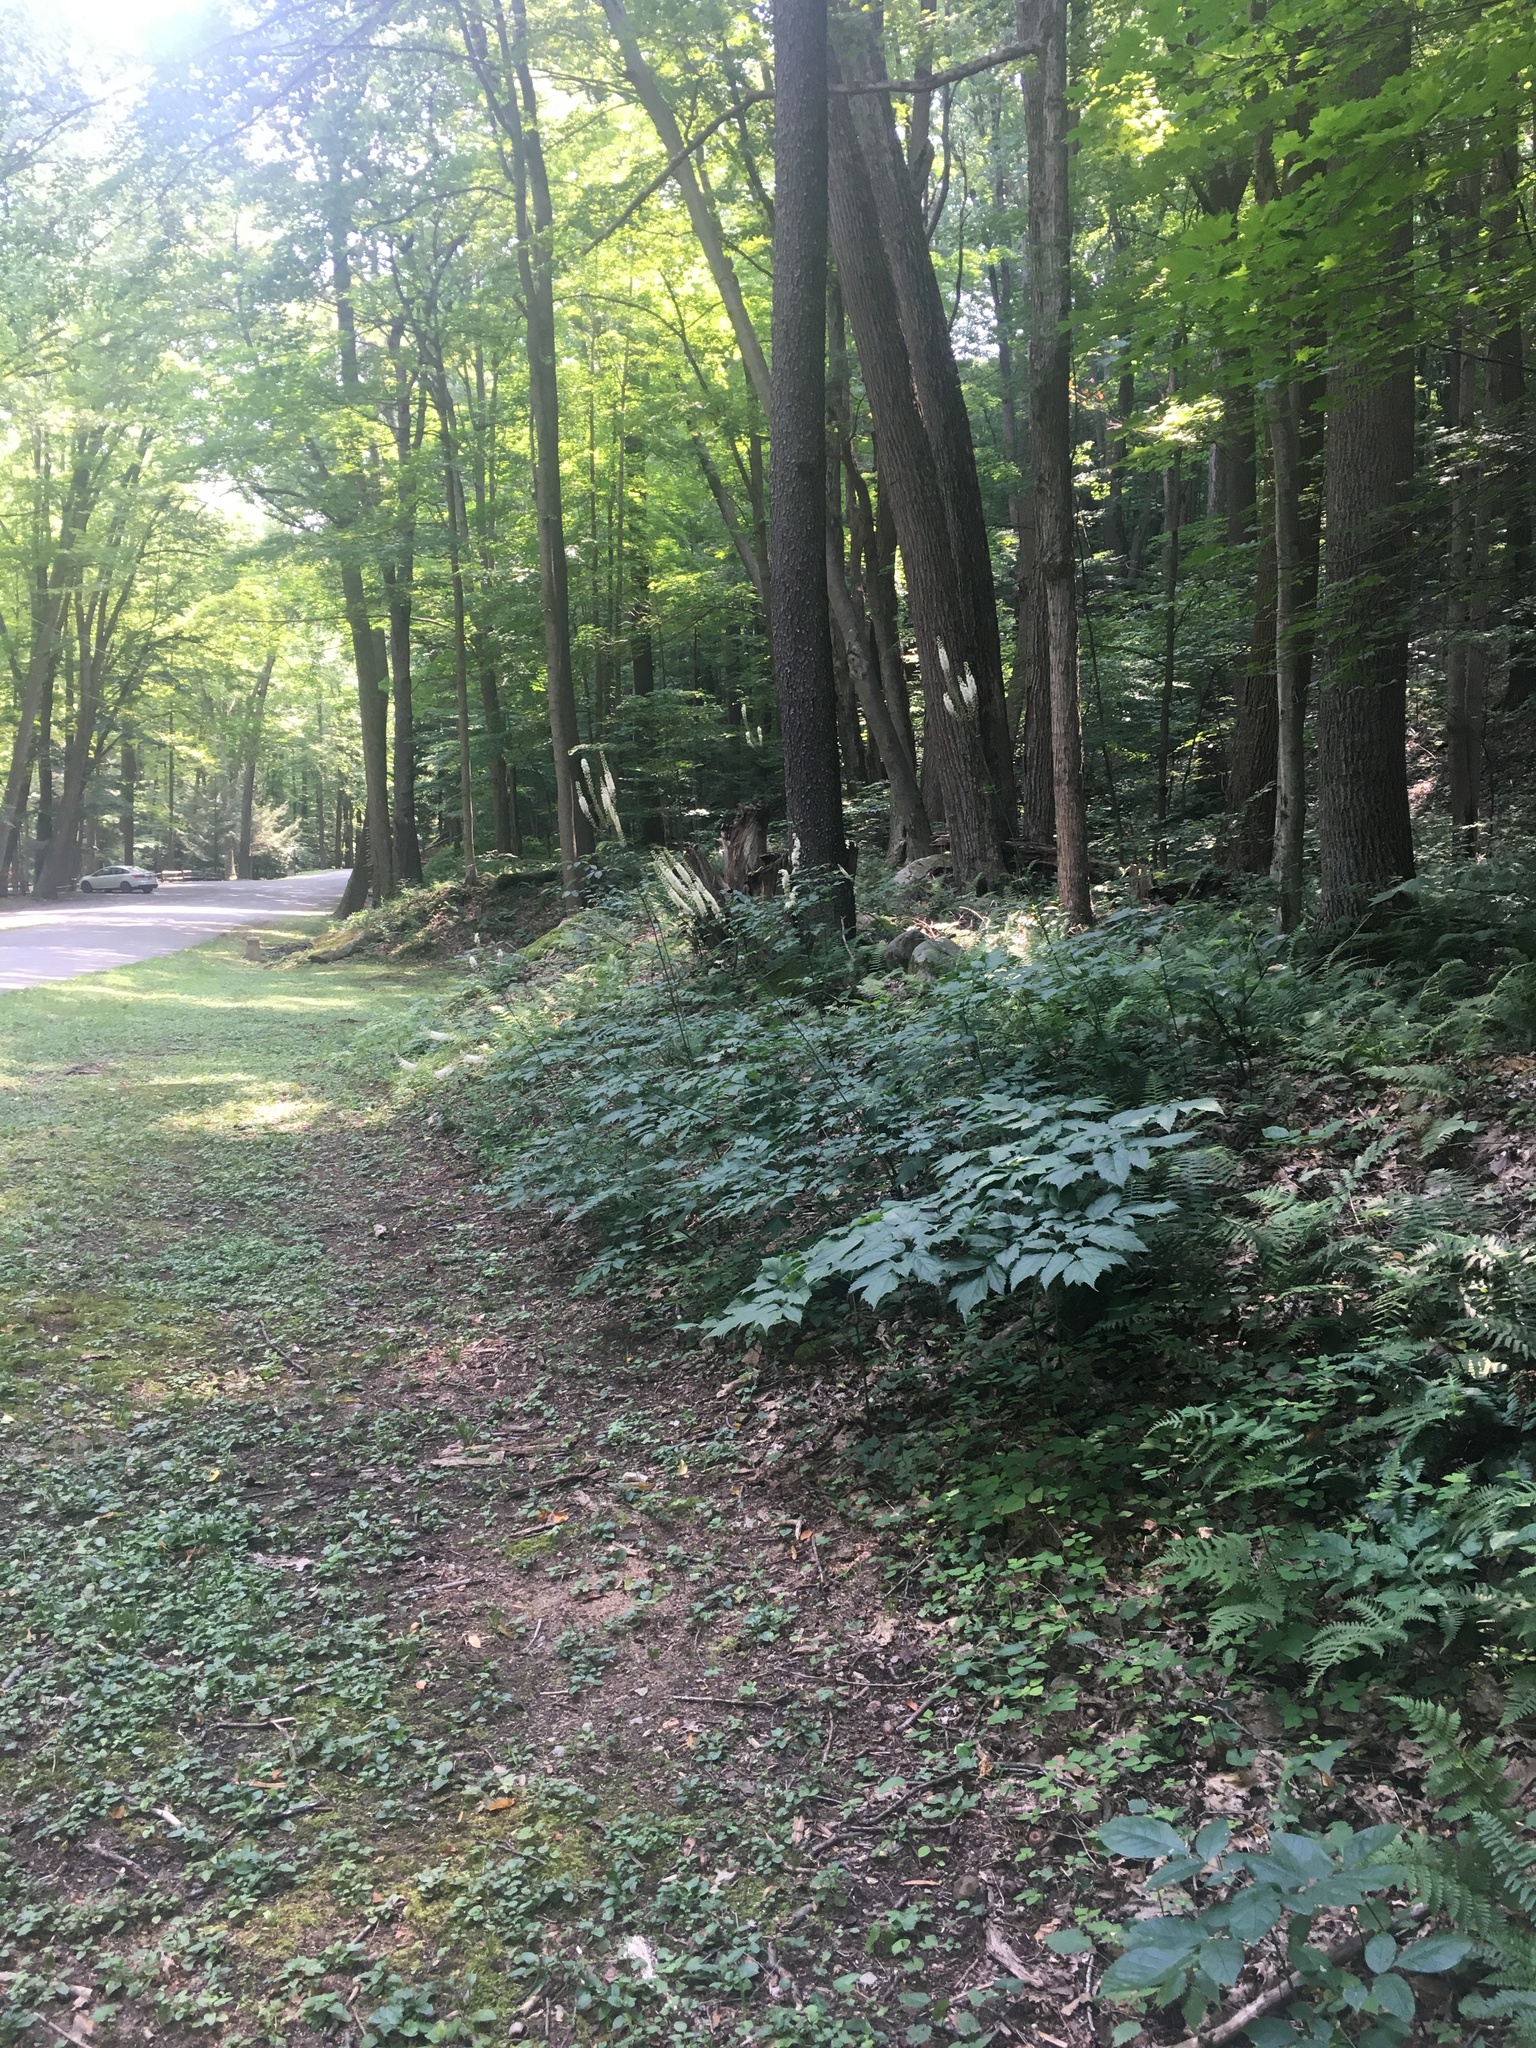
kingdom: Plantae
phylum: Tracheophyta
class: Magnoliopsida
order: Ranunculales
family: Ranunculaceae
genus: Actaea
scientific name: Actaea racemosa
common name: Black cohosh
